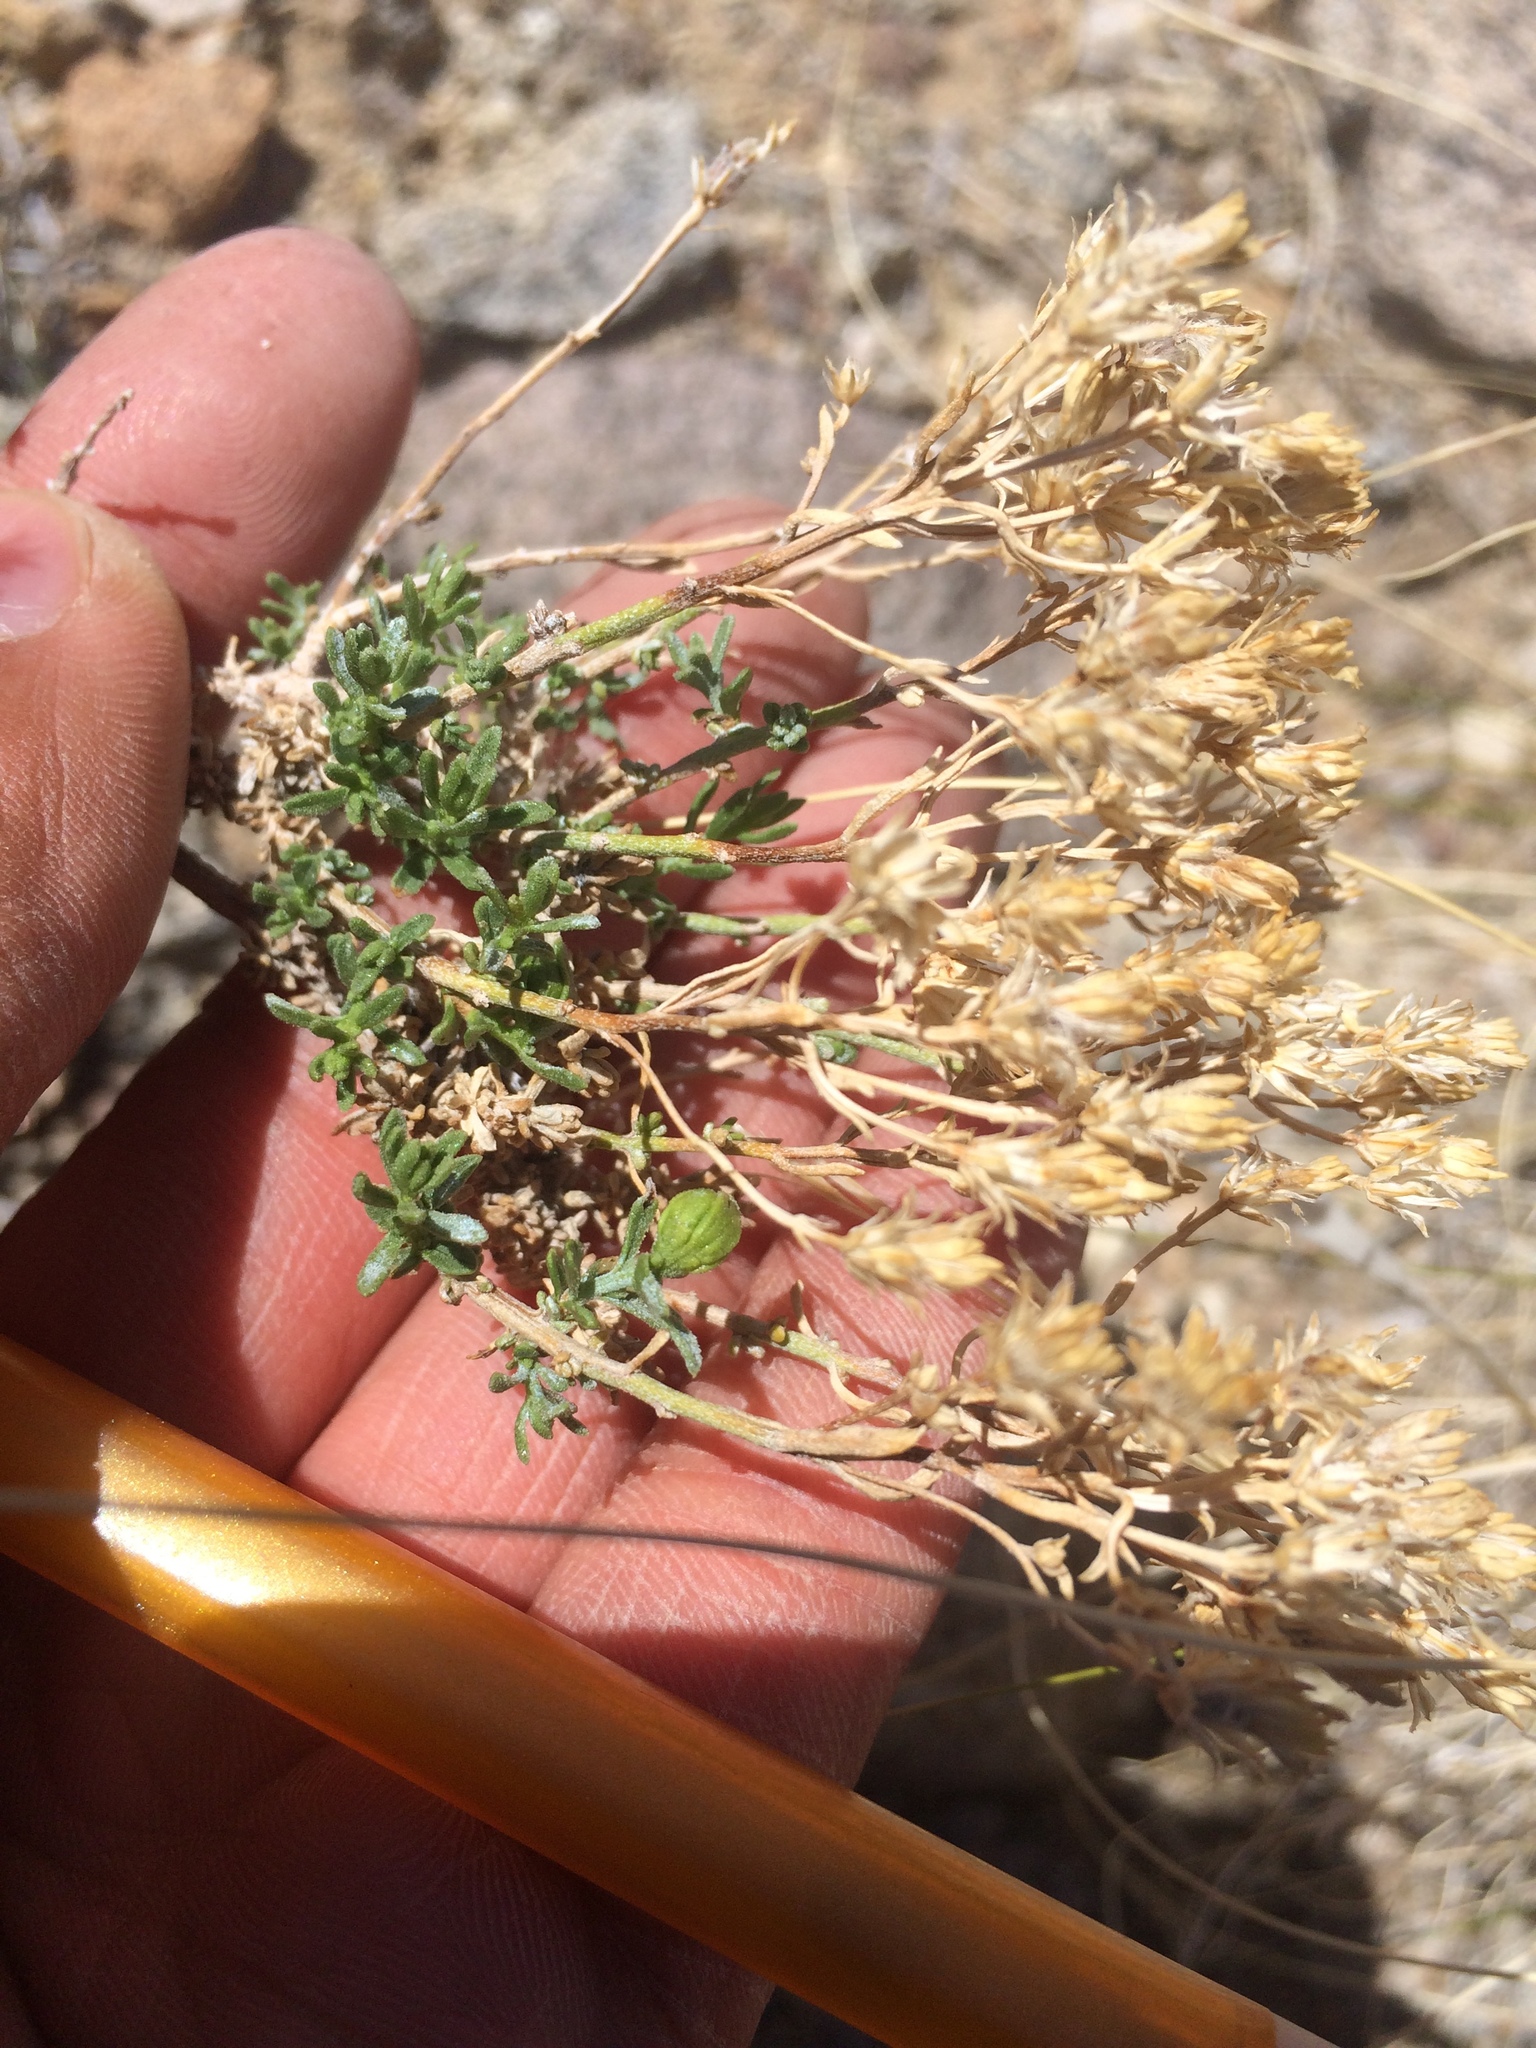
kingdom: Plantae
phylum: Tracheophyta
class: Magnoliopsida
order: Asterales
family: Asteraceae
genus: Ericameria
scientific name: Ericameria cooperi
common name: Cooper's goldenbush
